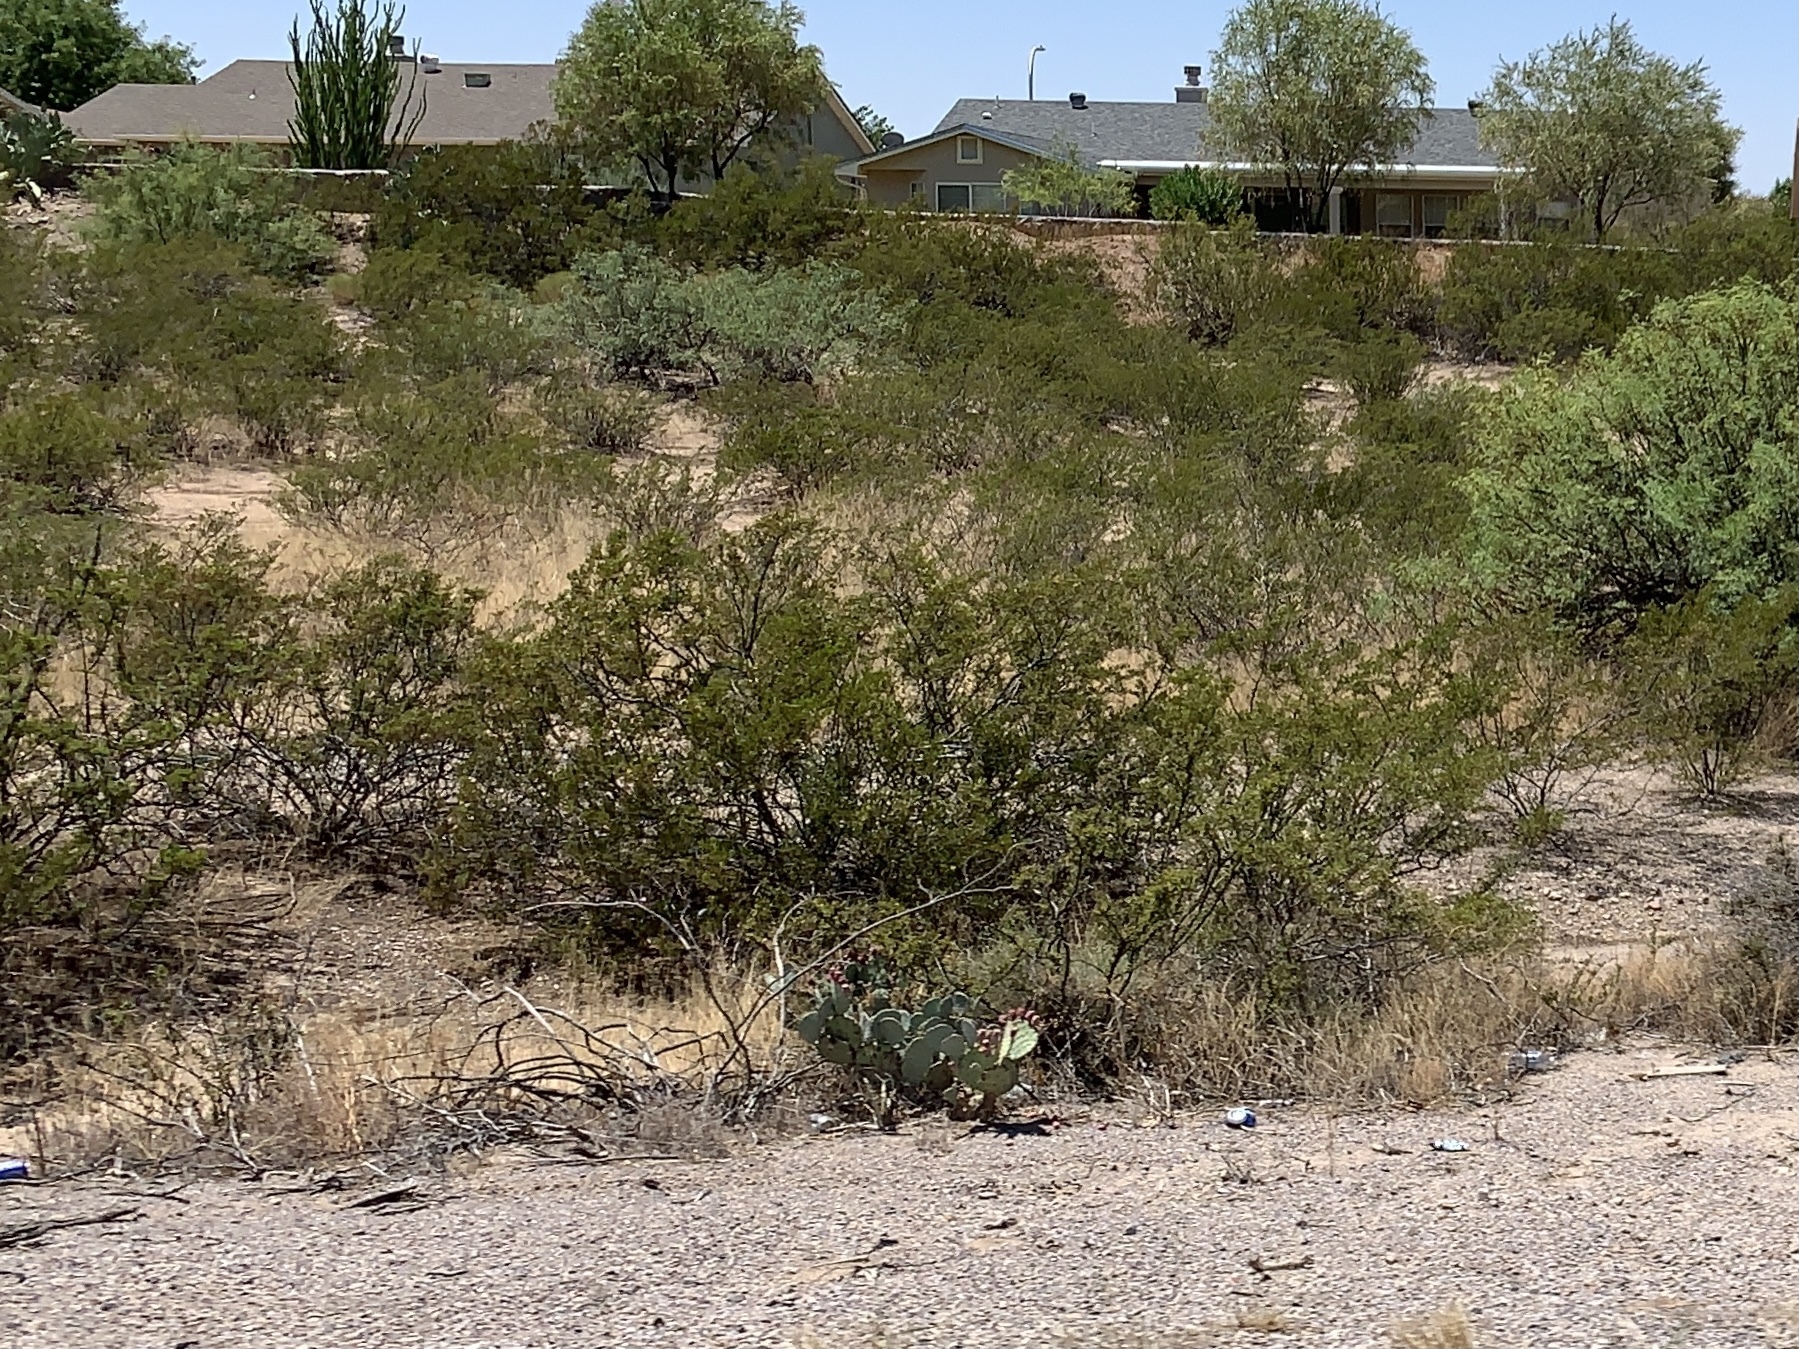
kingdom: Plantae
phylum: Tracheophyta
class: Magnoliopsida
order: Zygophyllales
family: Zygophyllaceae
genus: Larrea
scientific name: Larrea tridentata
